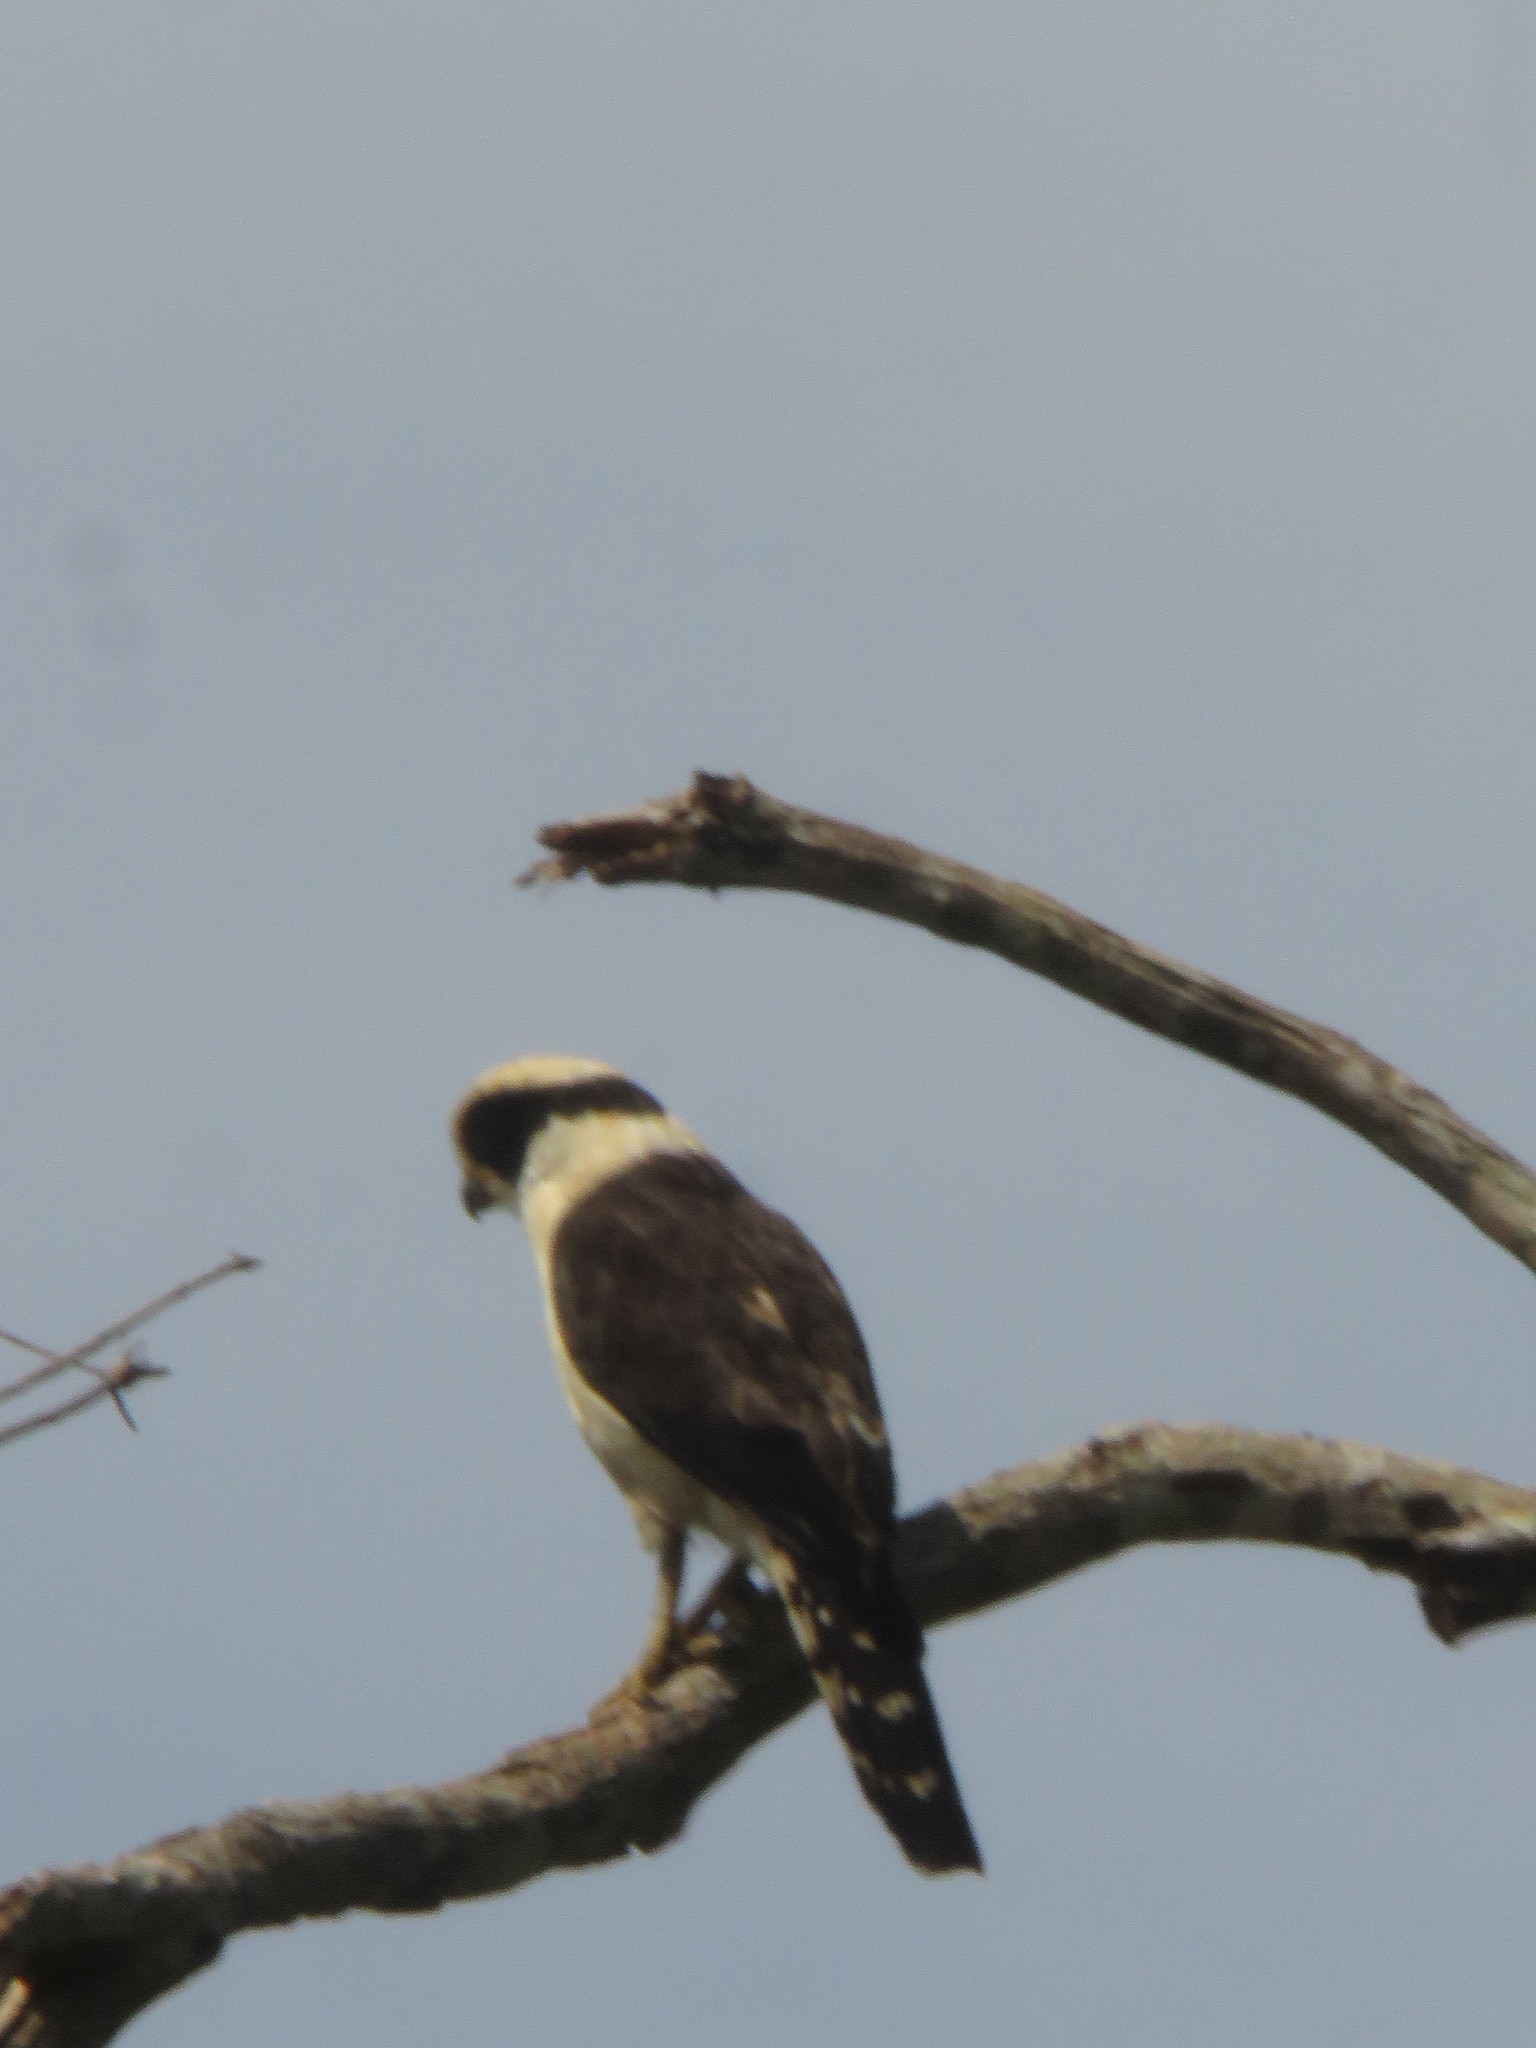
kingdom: Animalia
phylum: Chordata
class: Aves
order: Falconiformes
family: Falconidae
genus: Herpetotheres
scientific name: Herpetotheres cachinnans
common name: Laughing falcon
